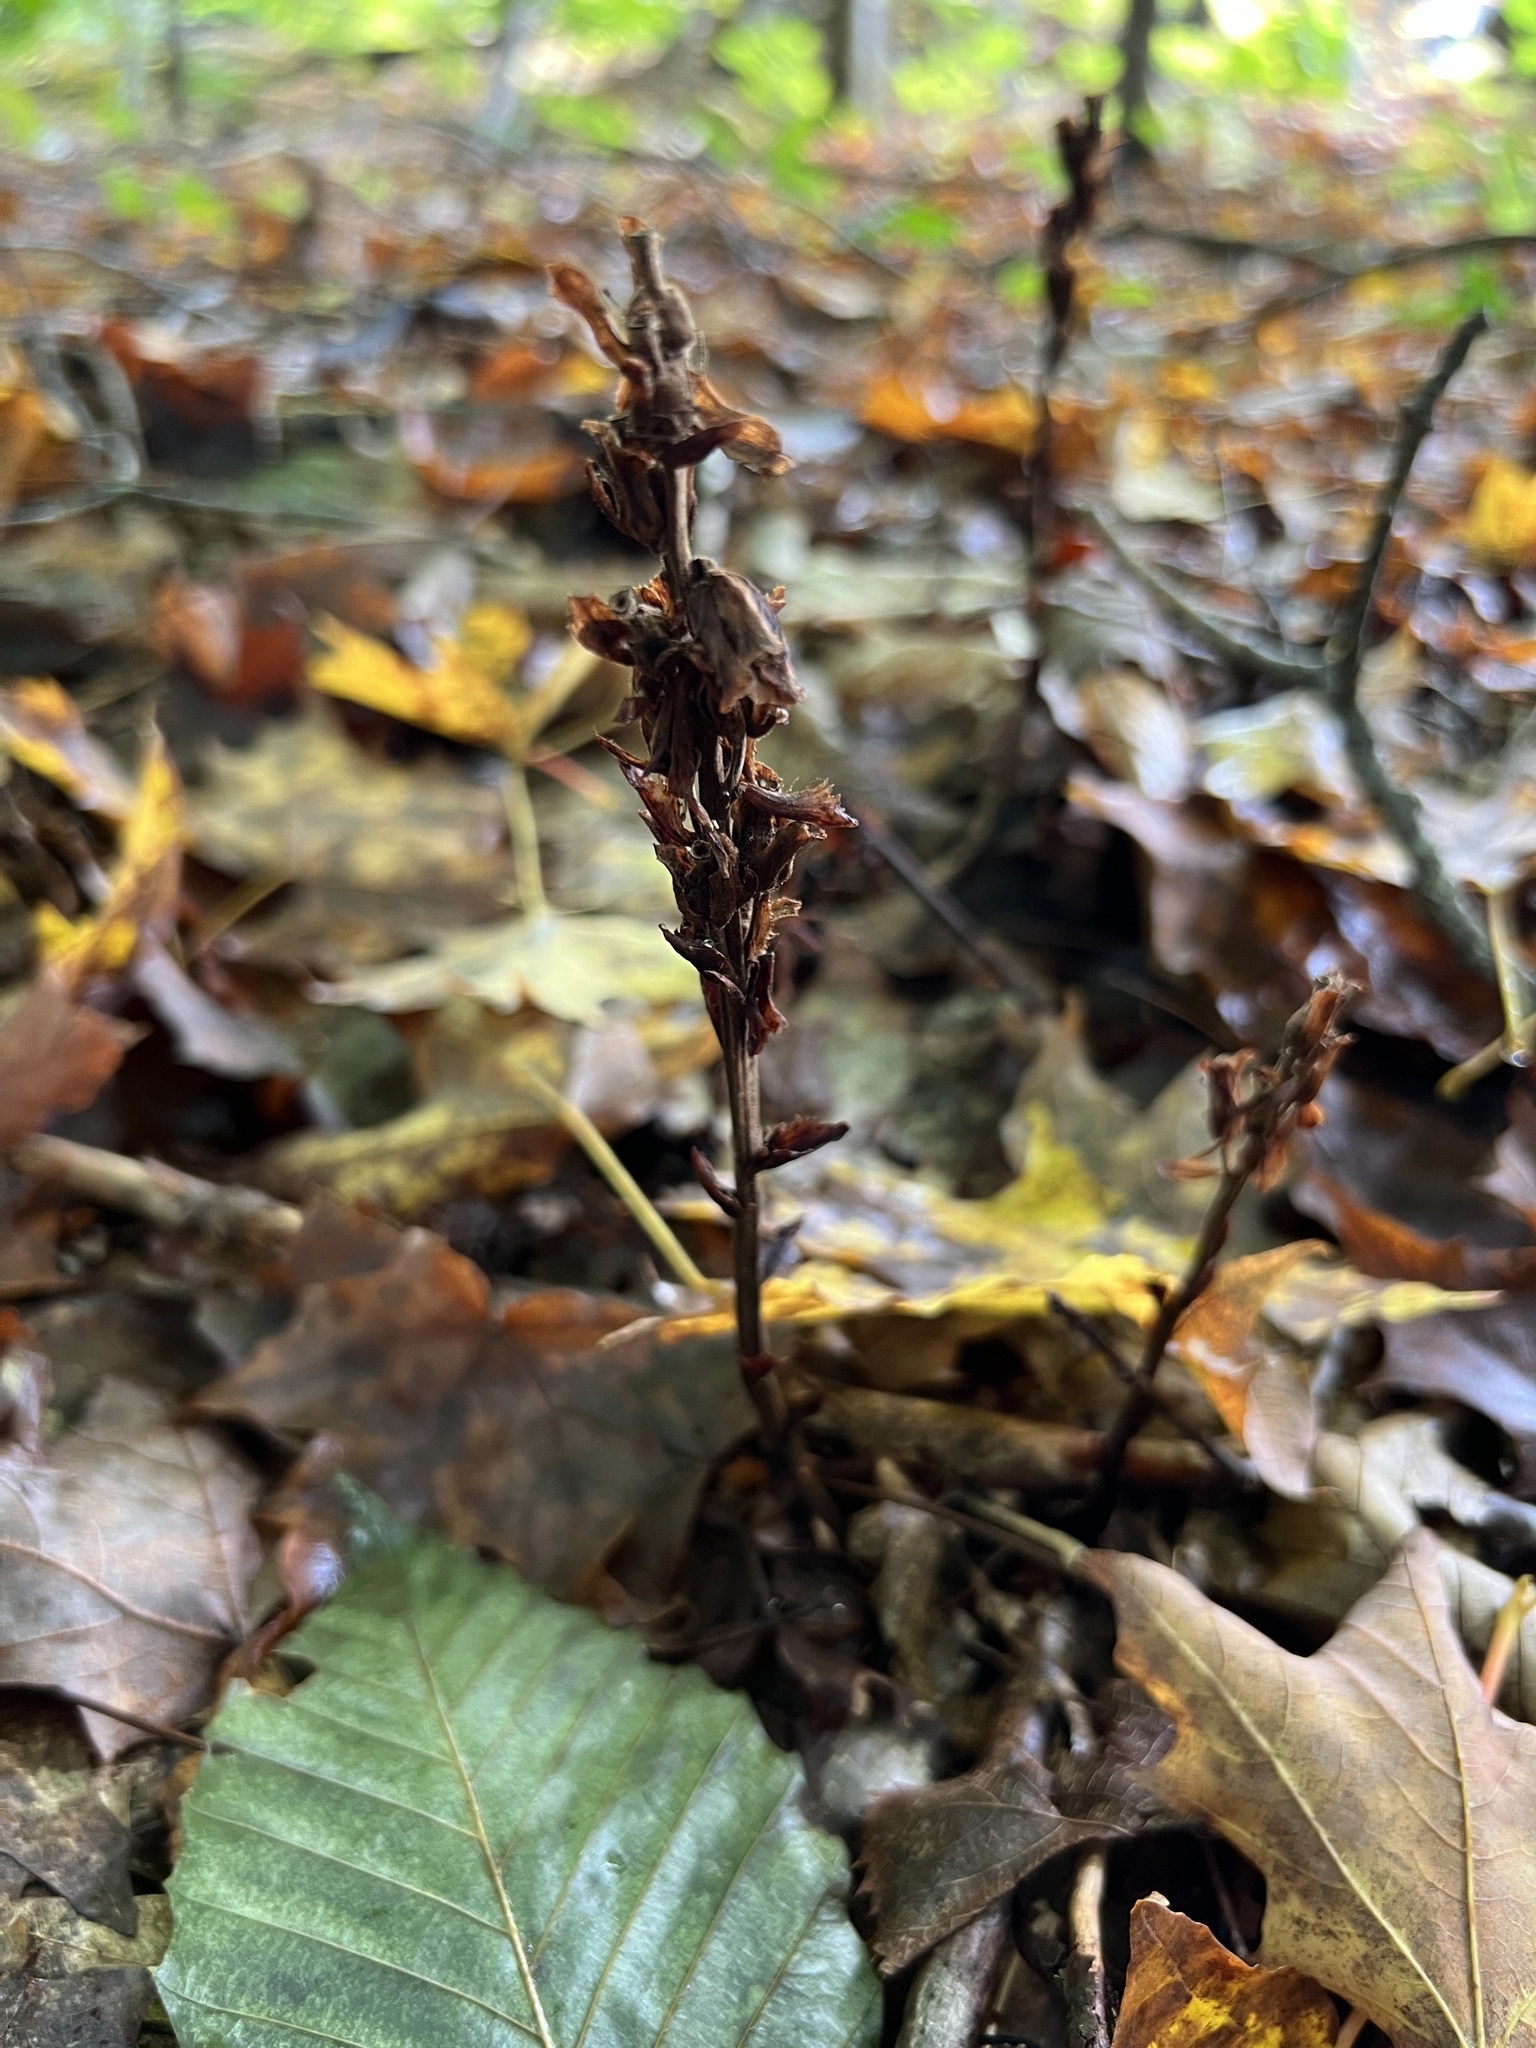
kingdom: Plantae
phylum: Tracheophyta
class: Magnoliopsida
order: Ericales
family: Ericaceae
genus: Hypopitys
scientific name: Hypopitys monotropa
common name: Yellow bird's-nest
